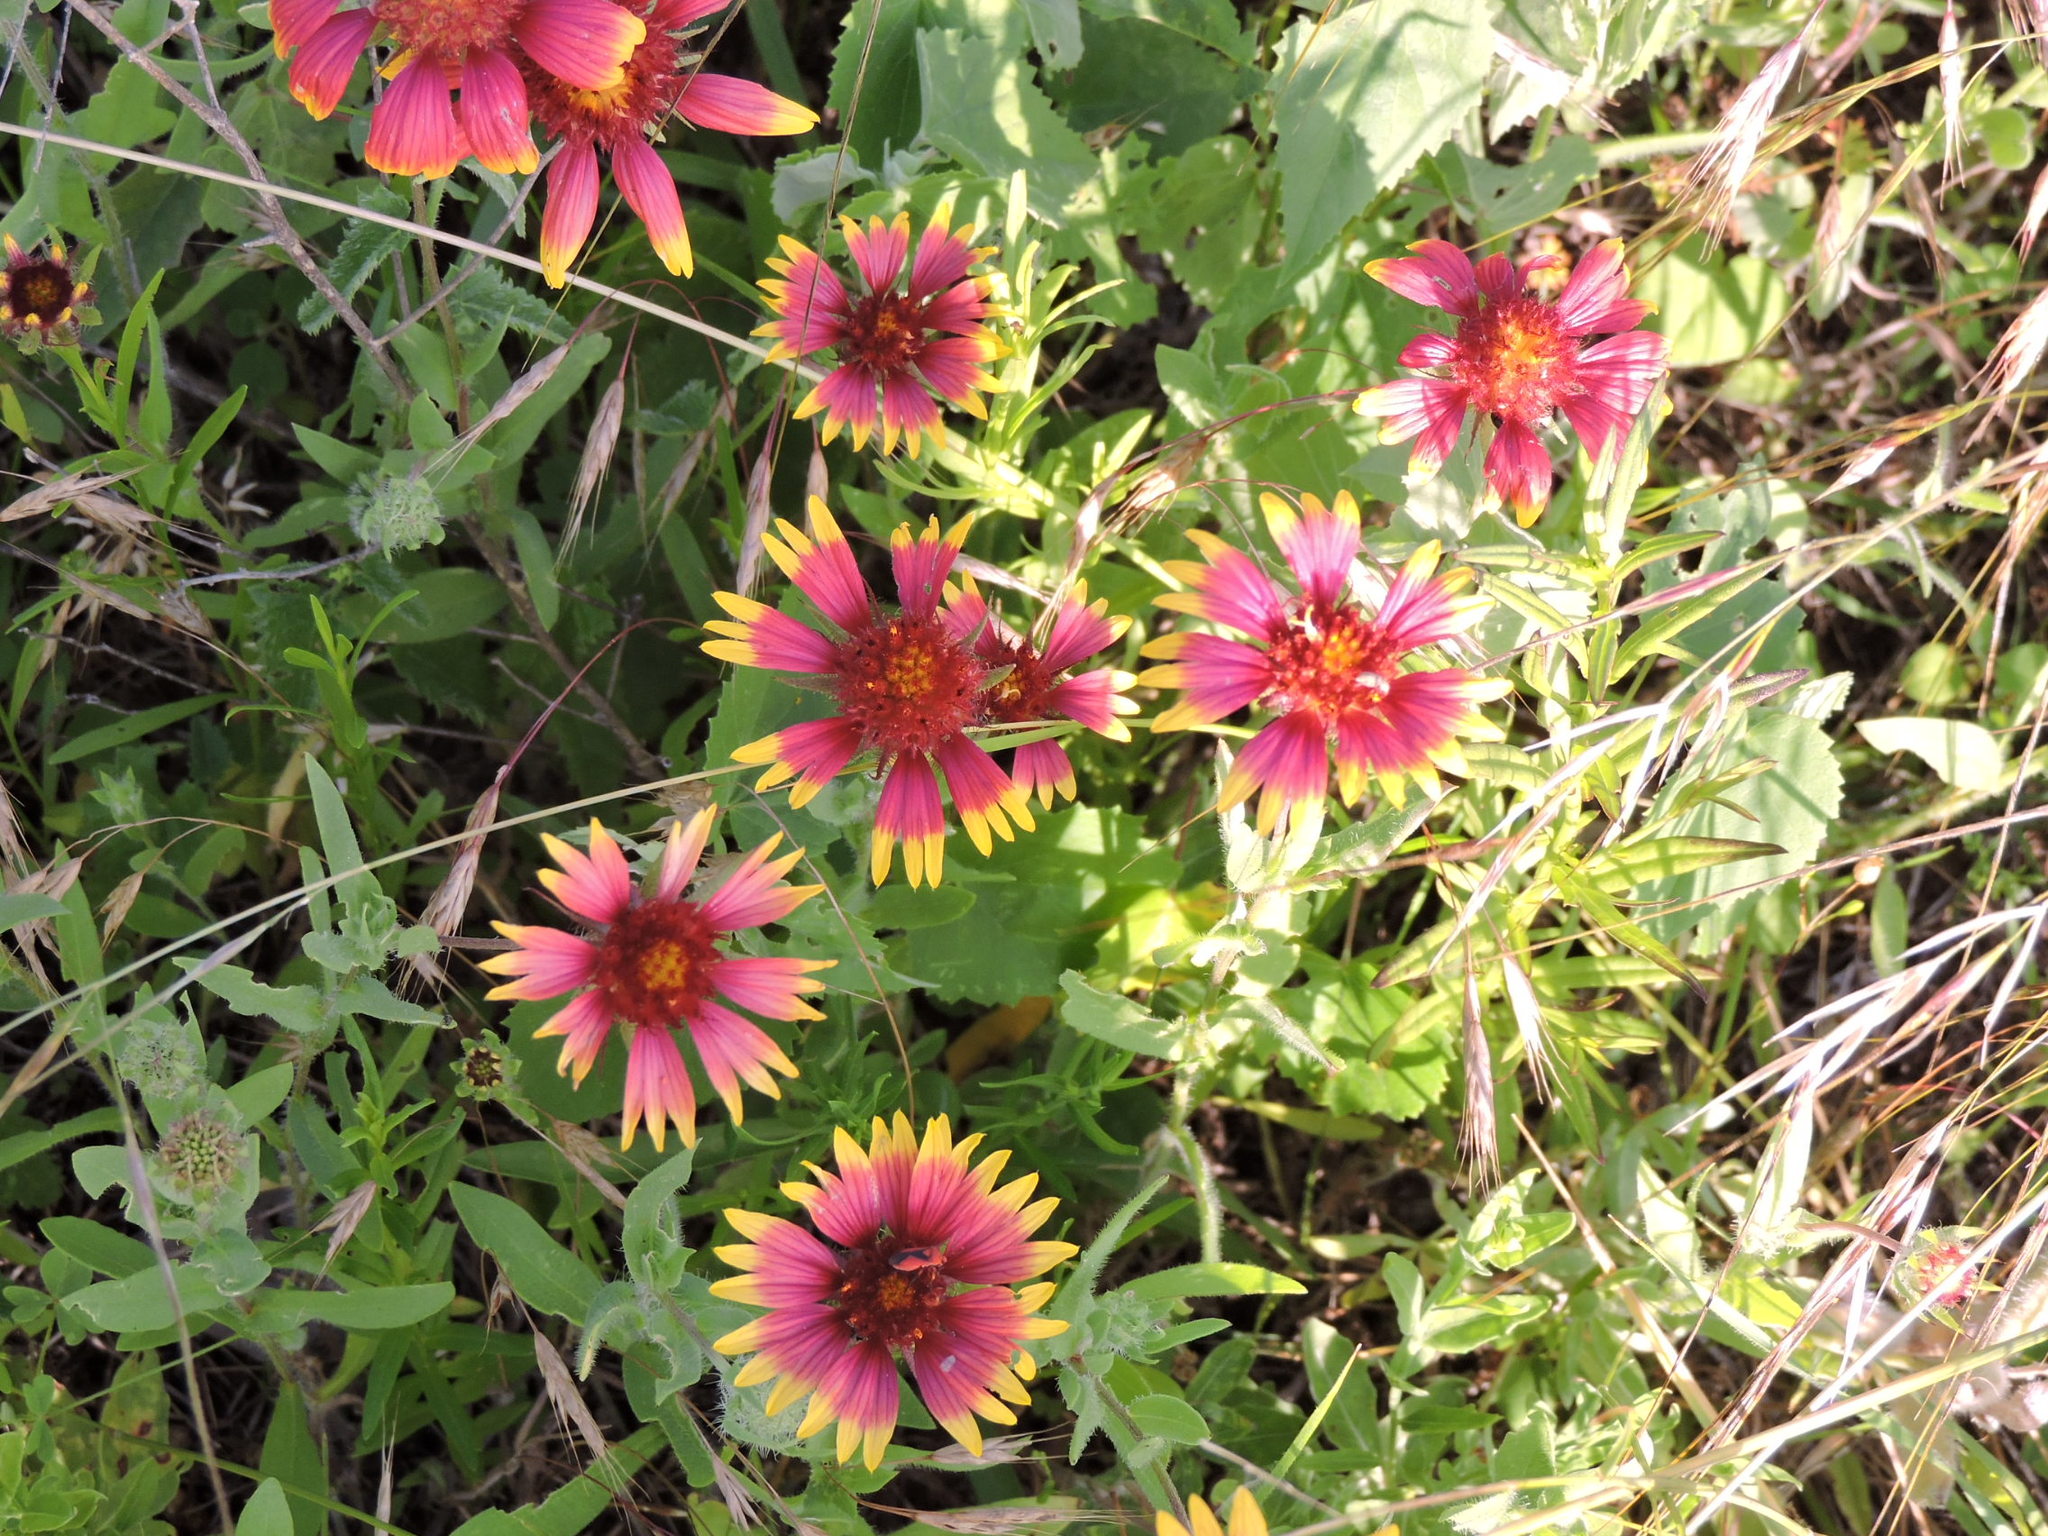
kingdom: Plantae
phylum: Tracheophyta
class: Magnoliopsida
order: Asterales
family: Asteraceae
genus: Gaillardia
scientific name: Gaillardia pulchella
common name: Firewheel
